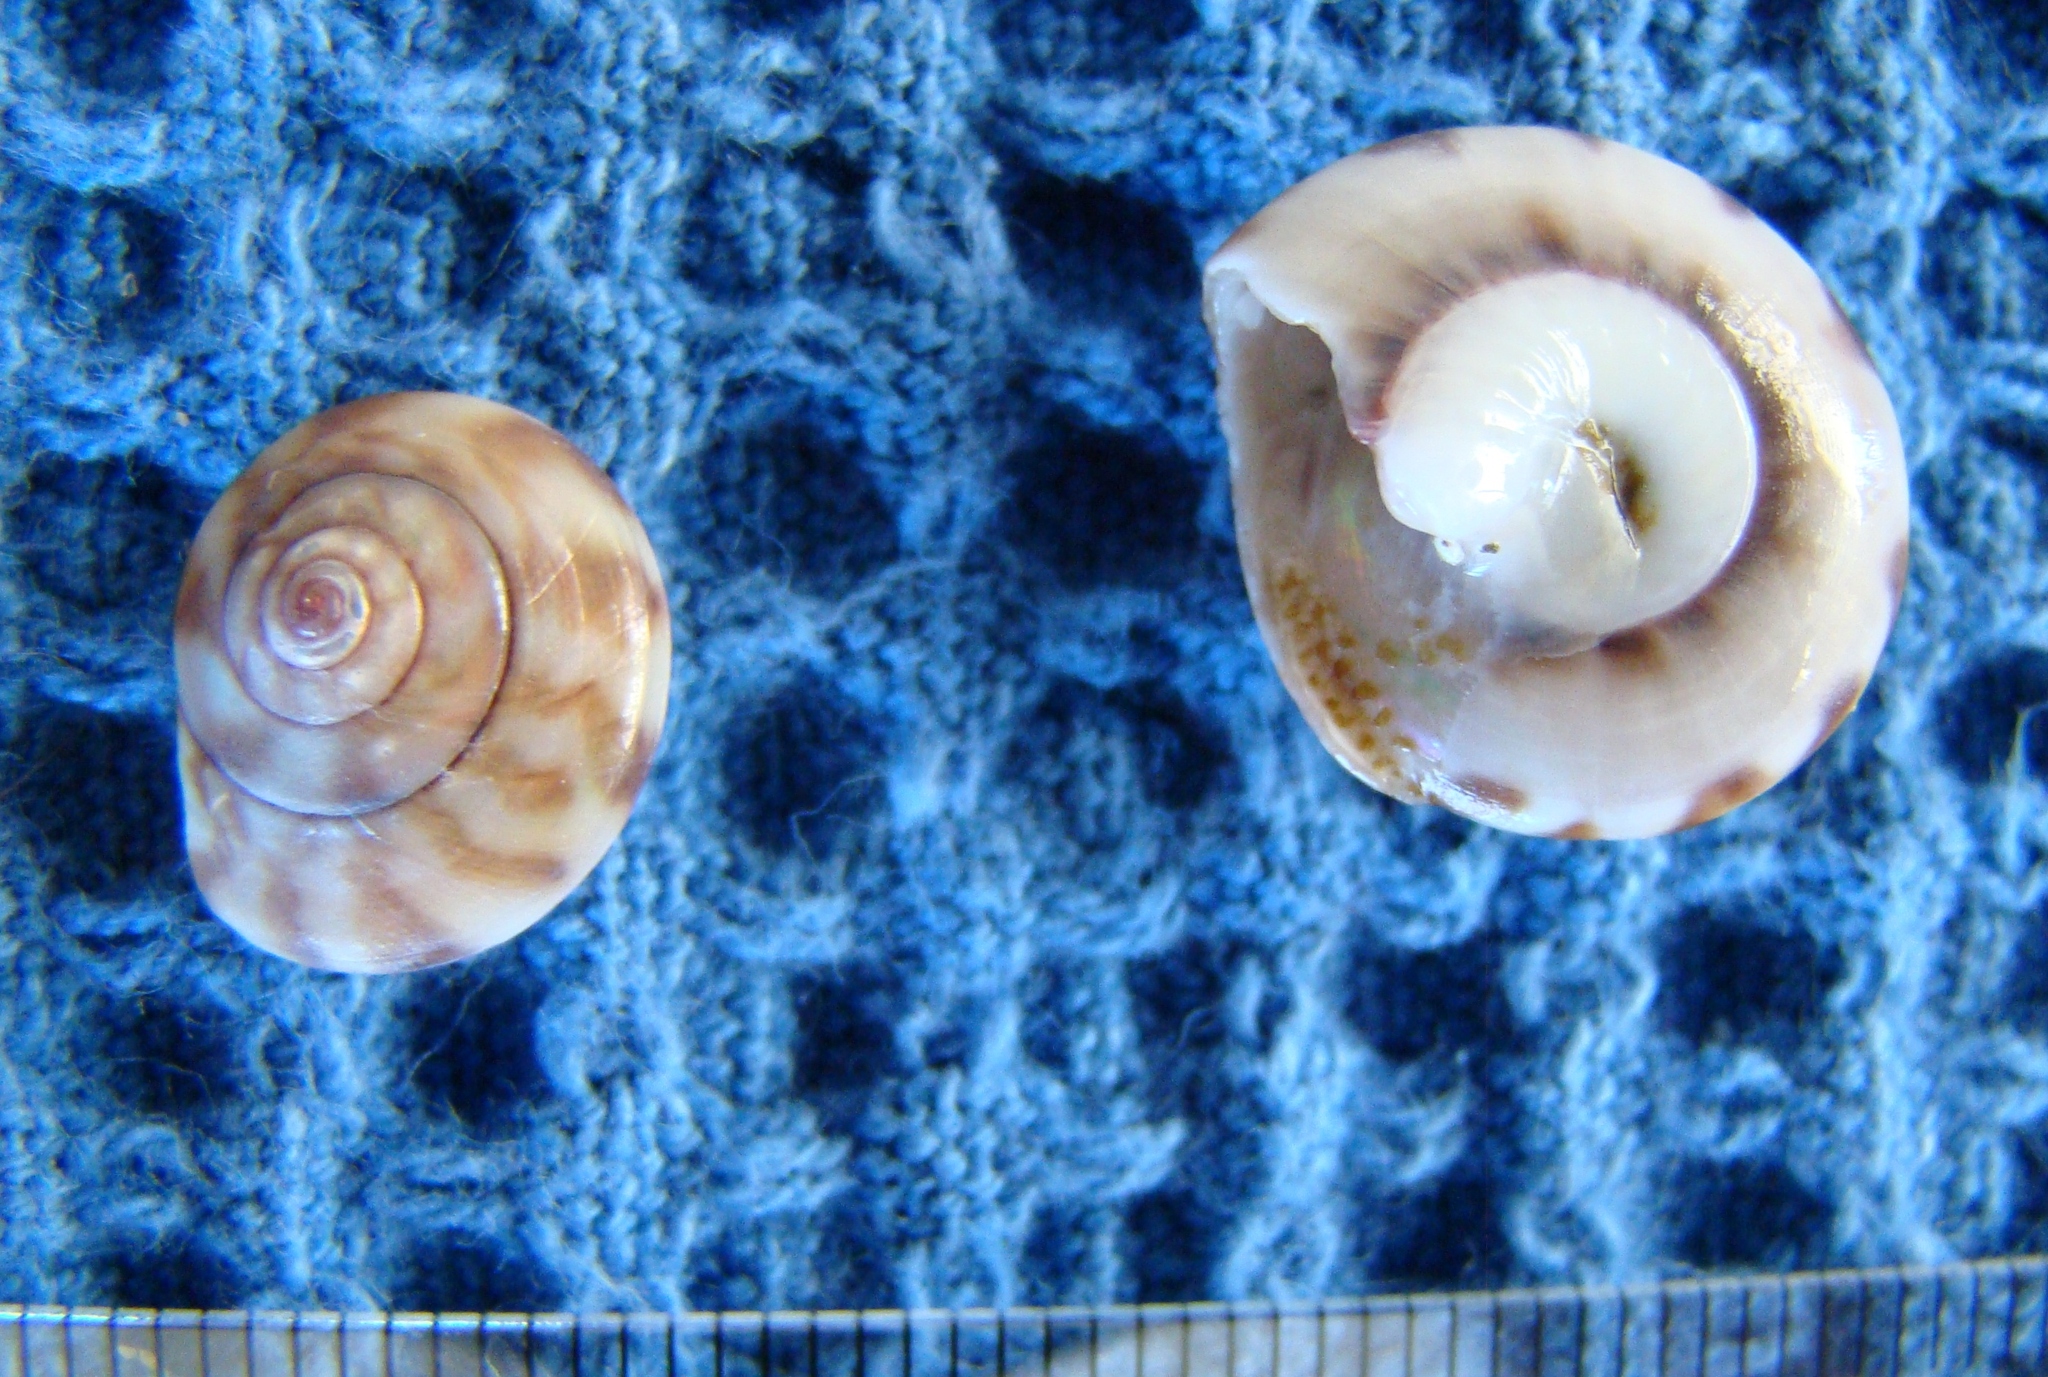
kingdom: Animalia
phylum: Mollusca
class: Gastropoda
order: Trochida
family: Trochidae
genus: Zethalia
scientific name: Zethalia zelandica
